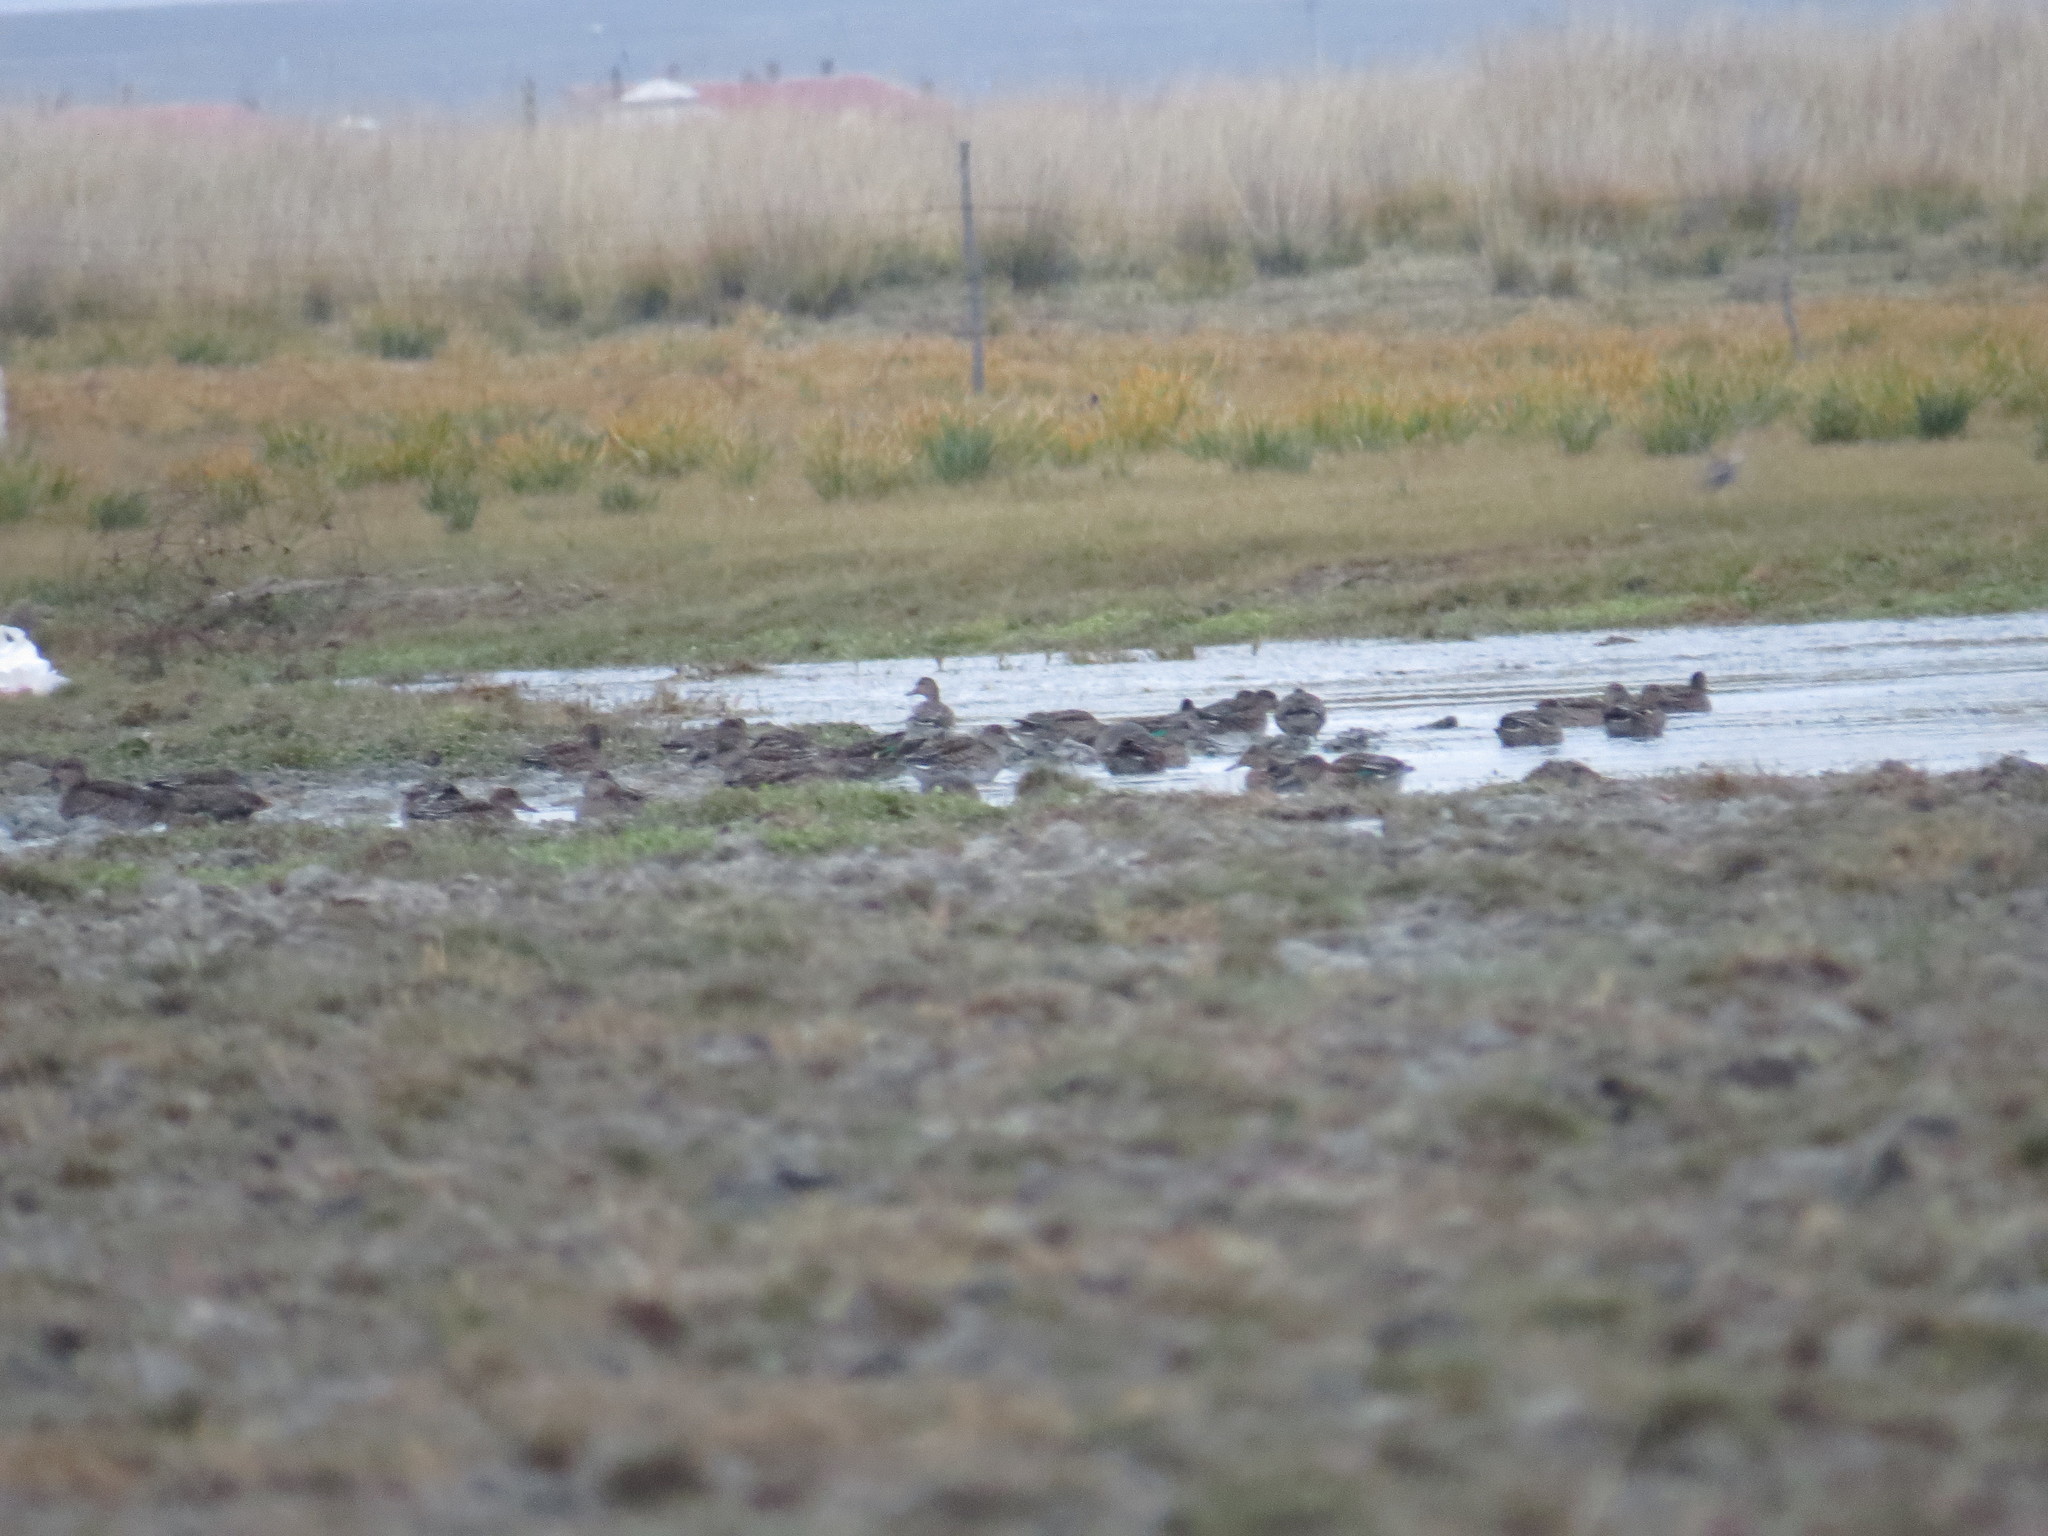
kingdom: Animalia
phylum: Chordata
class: Aves
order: Anseriformes
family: Anatidae
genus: Anas
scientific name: Anas crecca
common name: Eurasian teal
